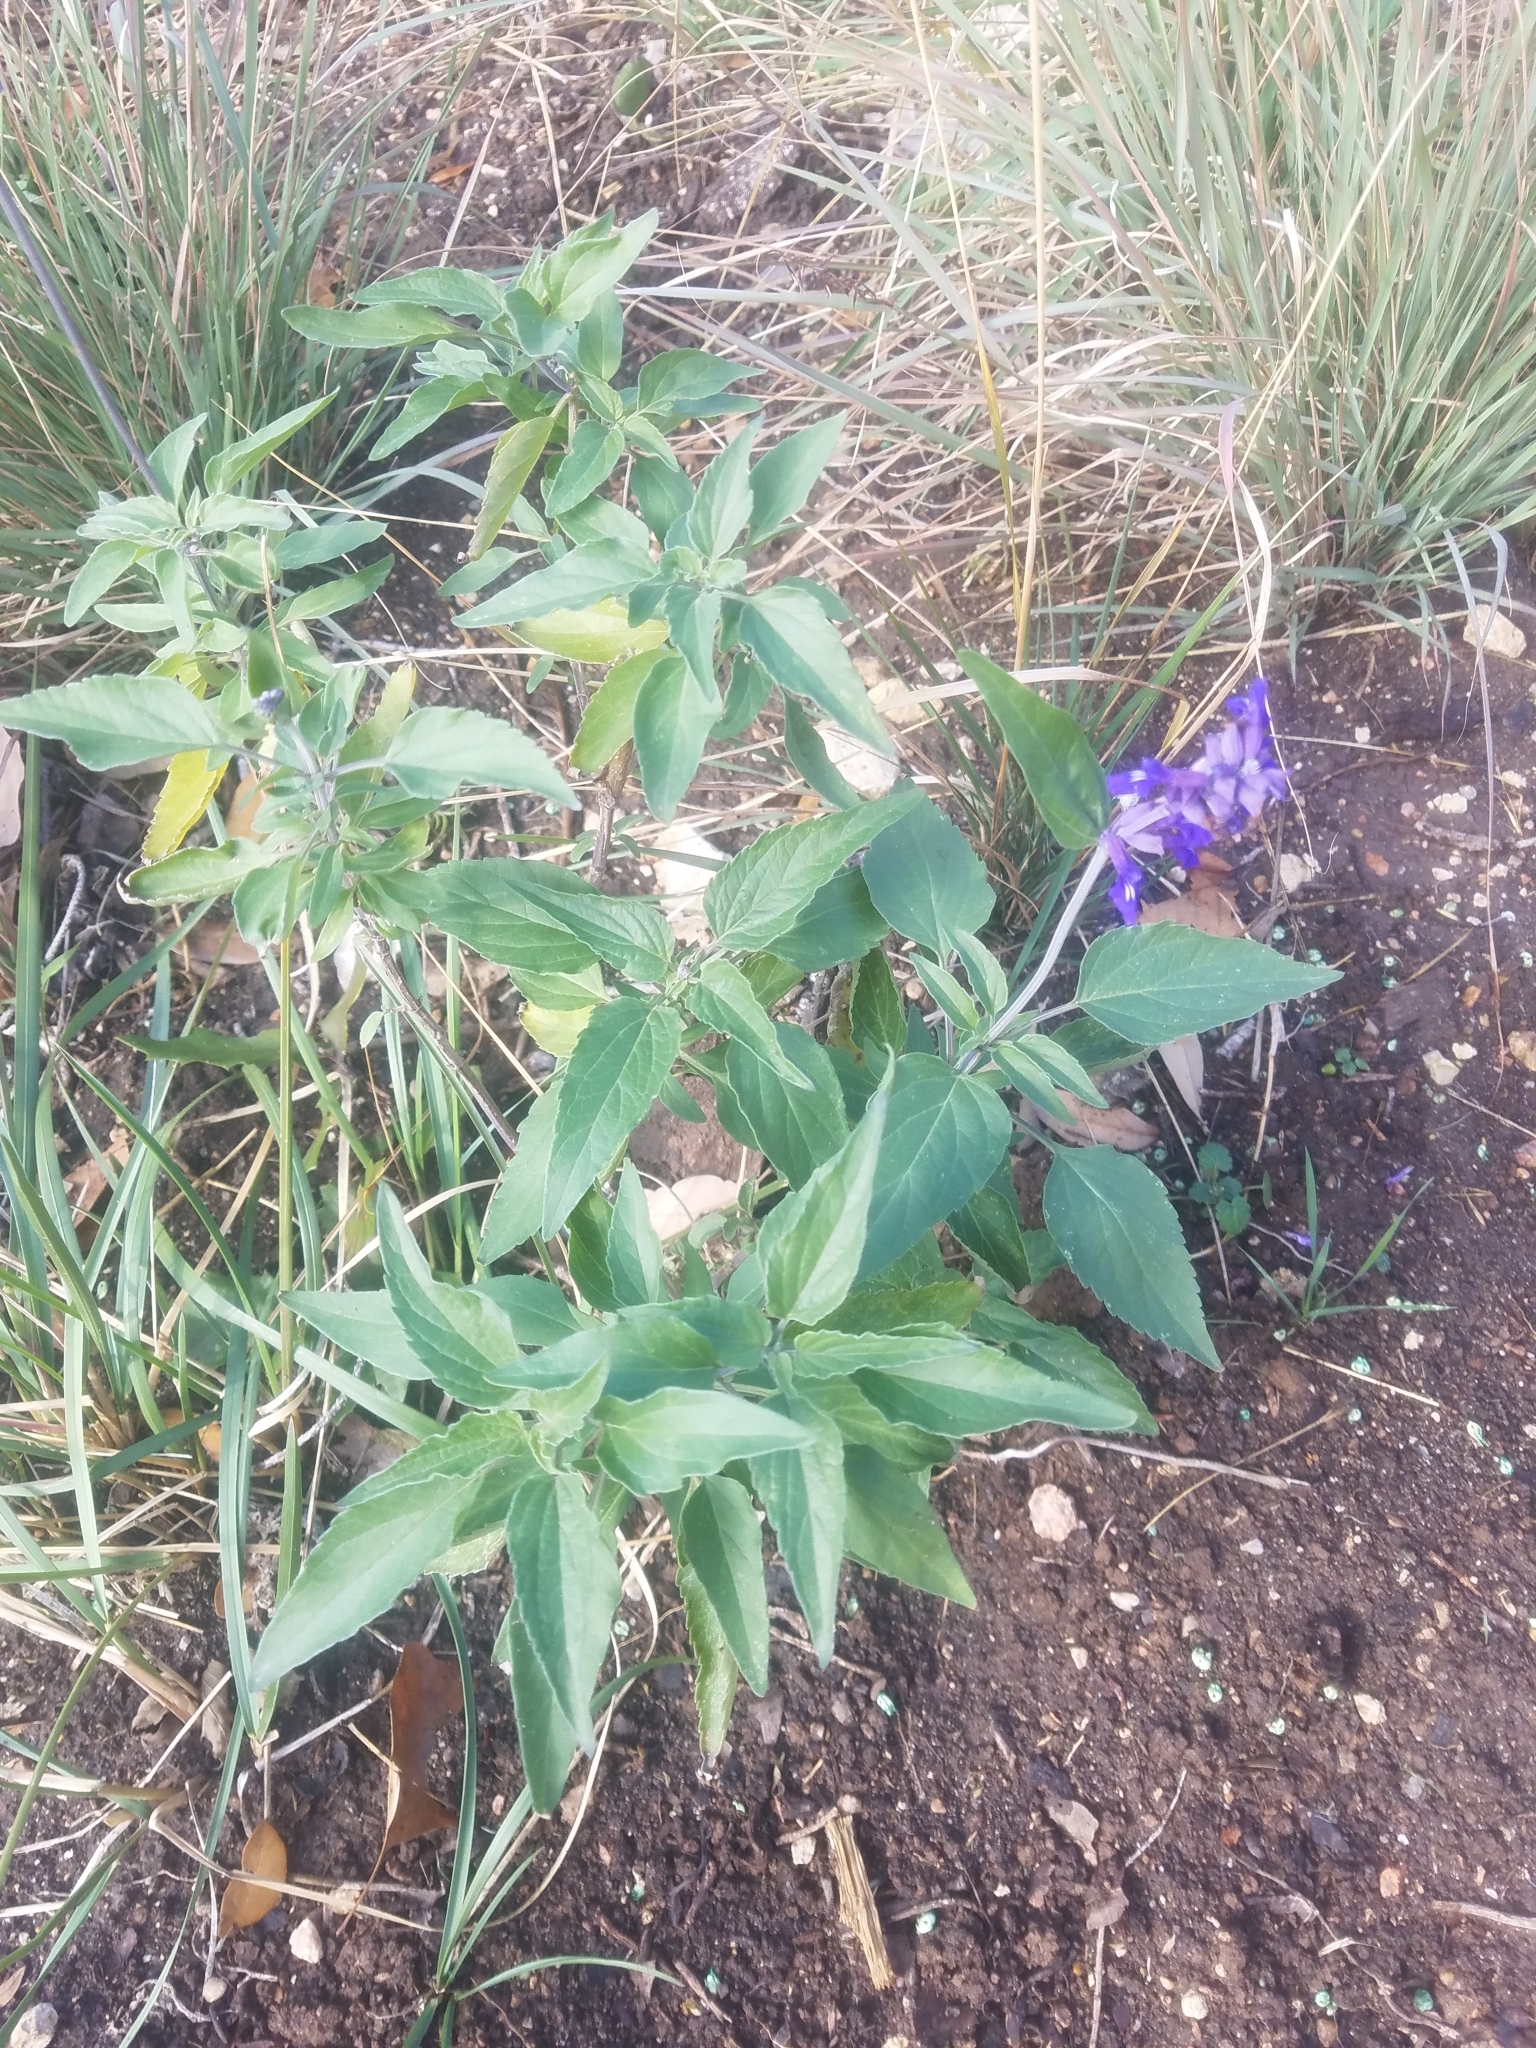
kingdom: Plantae
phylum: Tracheophyta
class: Magnoliopsida
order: Lamiales
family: Lamiaceae
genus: Salvia
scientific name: Salvia farinacea
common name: Mealy sage
